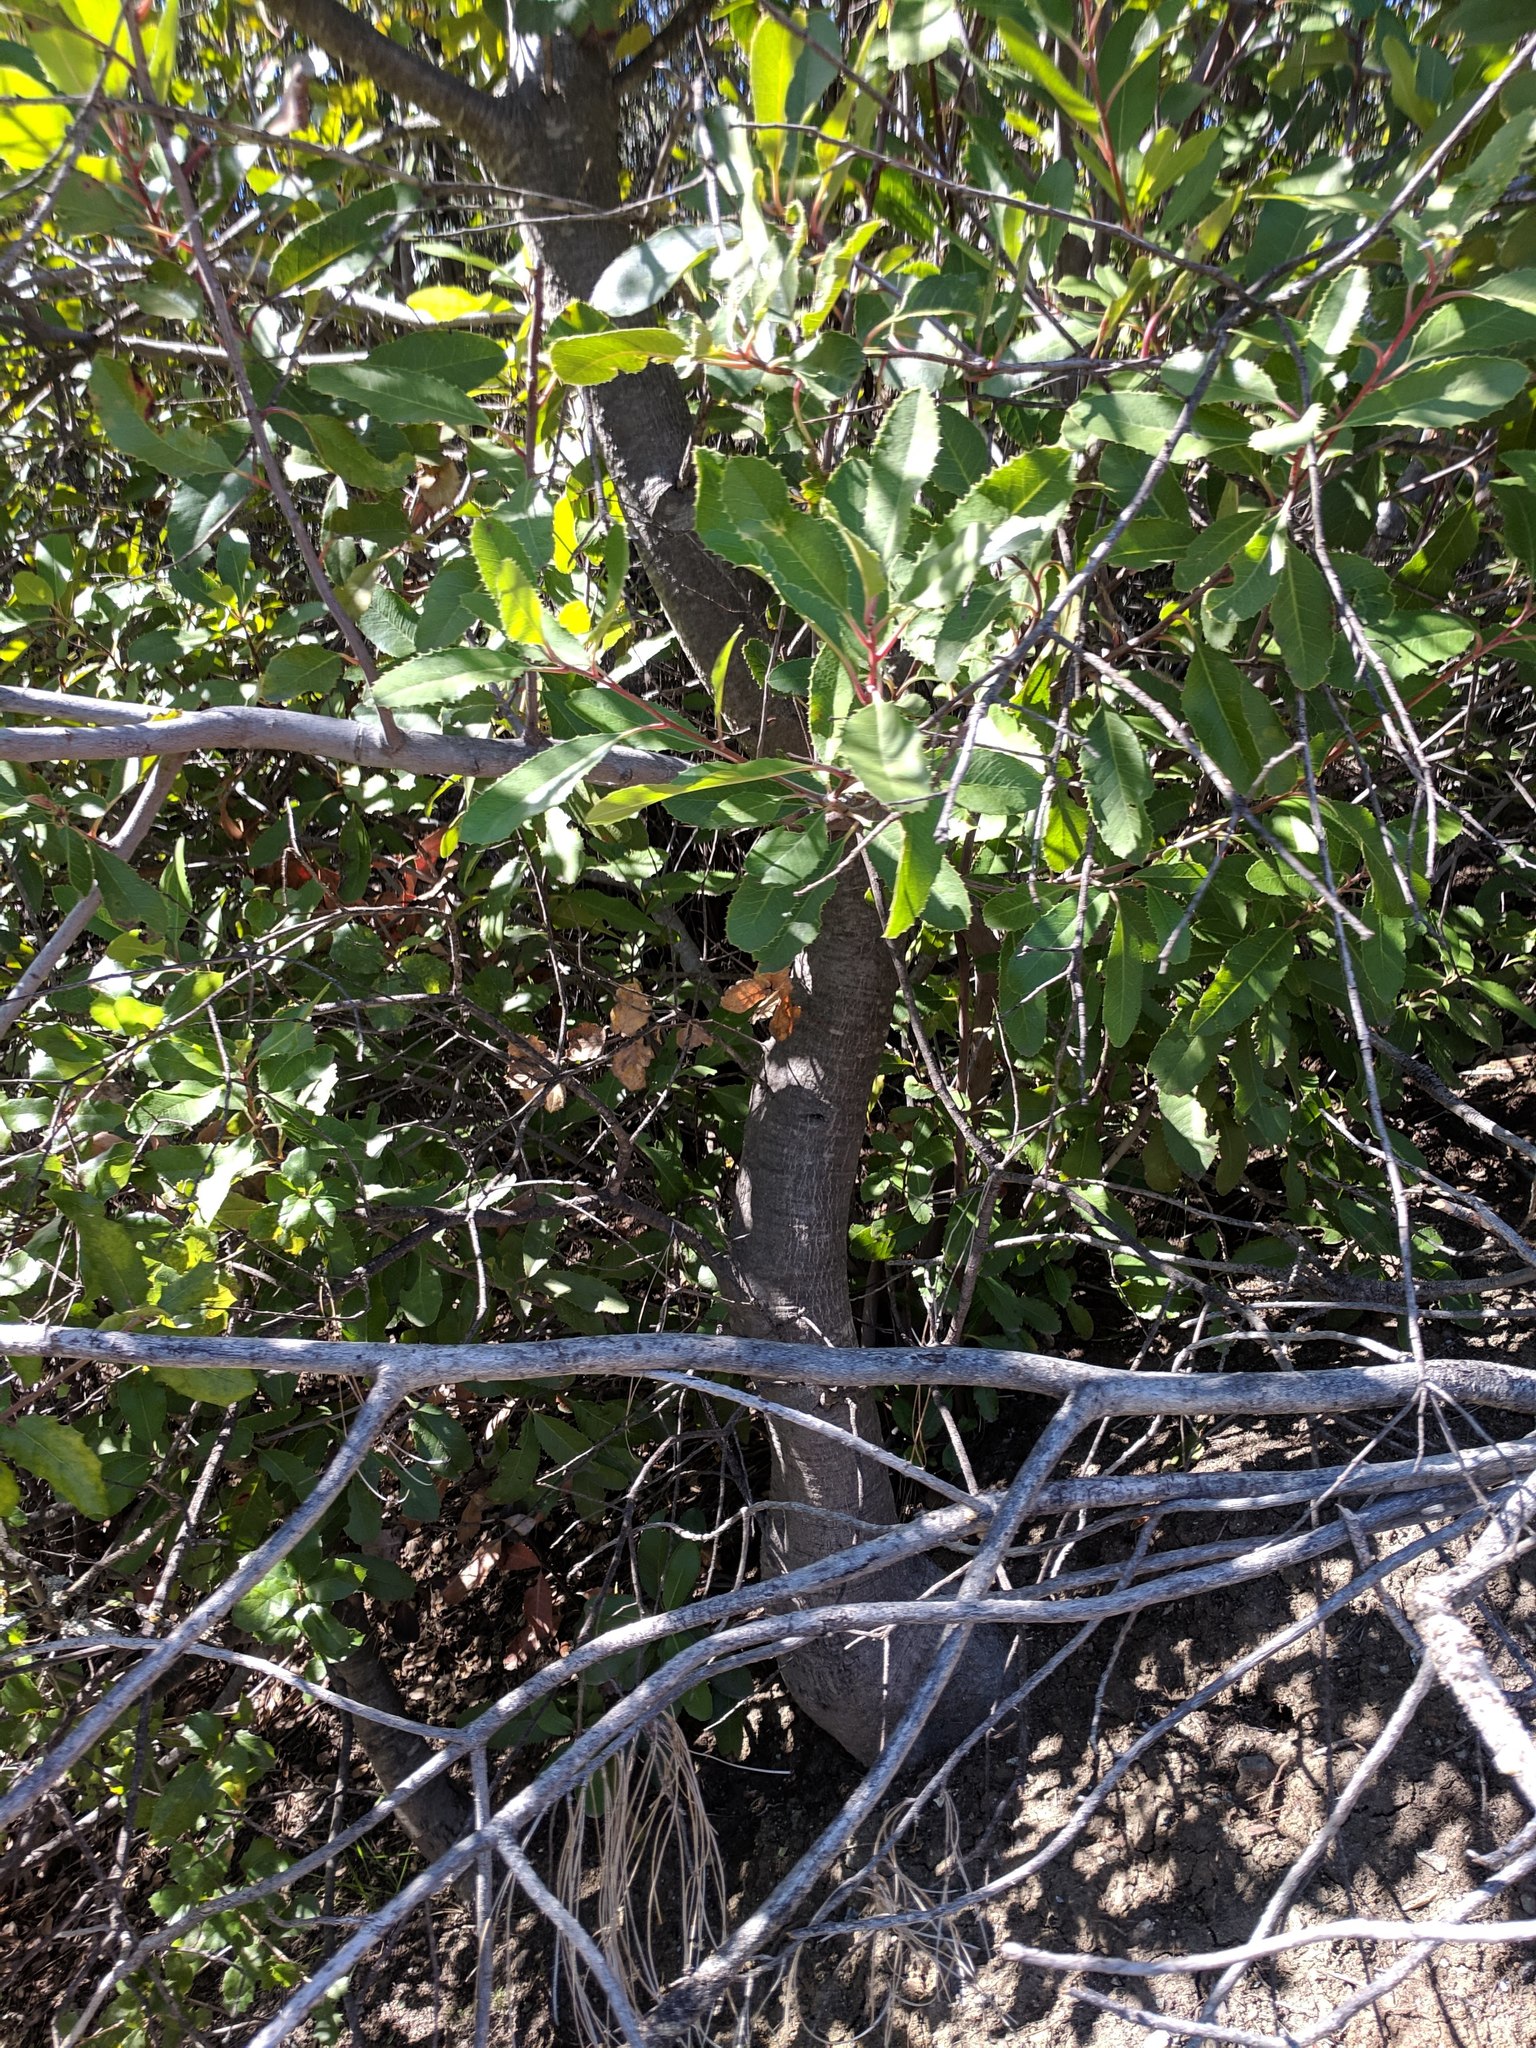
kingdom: Plantae
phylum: Tracheophyta
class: Magnoliopsida
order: Rosales
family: Rosaceae
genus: Heteromeles
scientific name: Heteromeles arbutifolia
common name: California-holly
